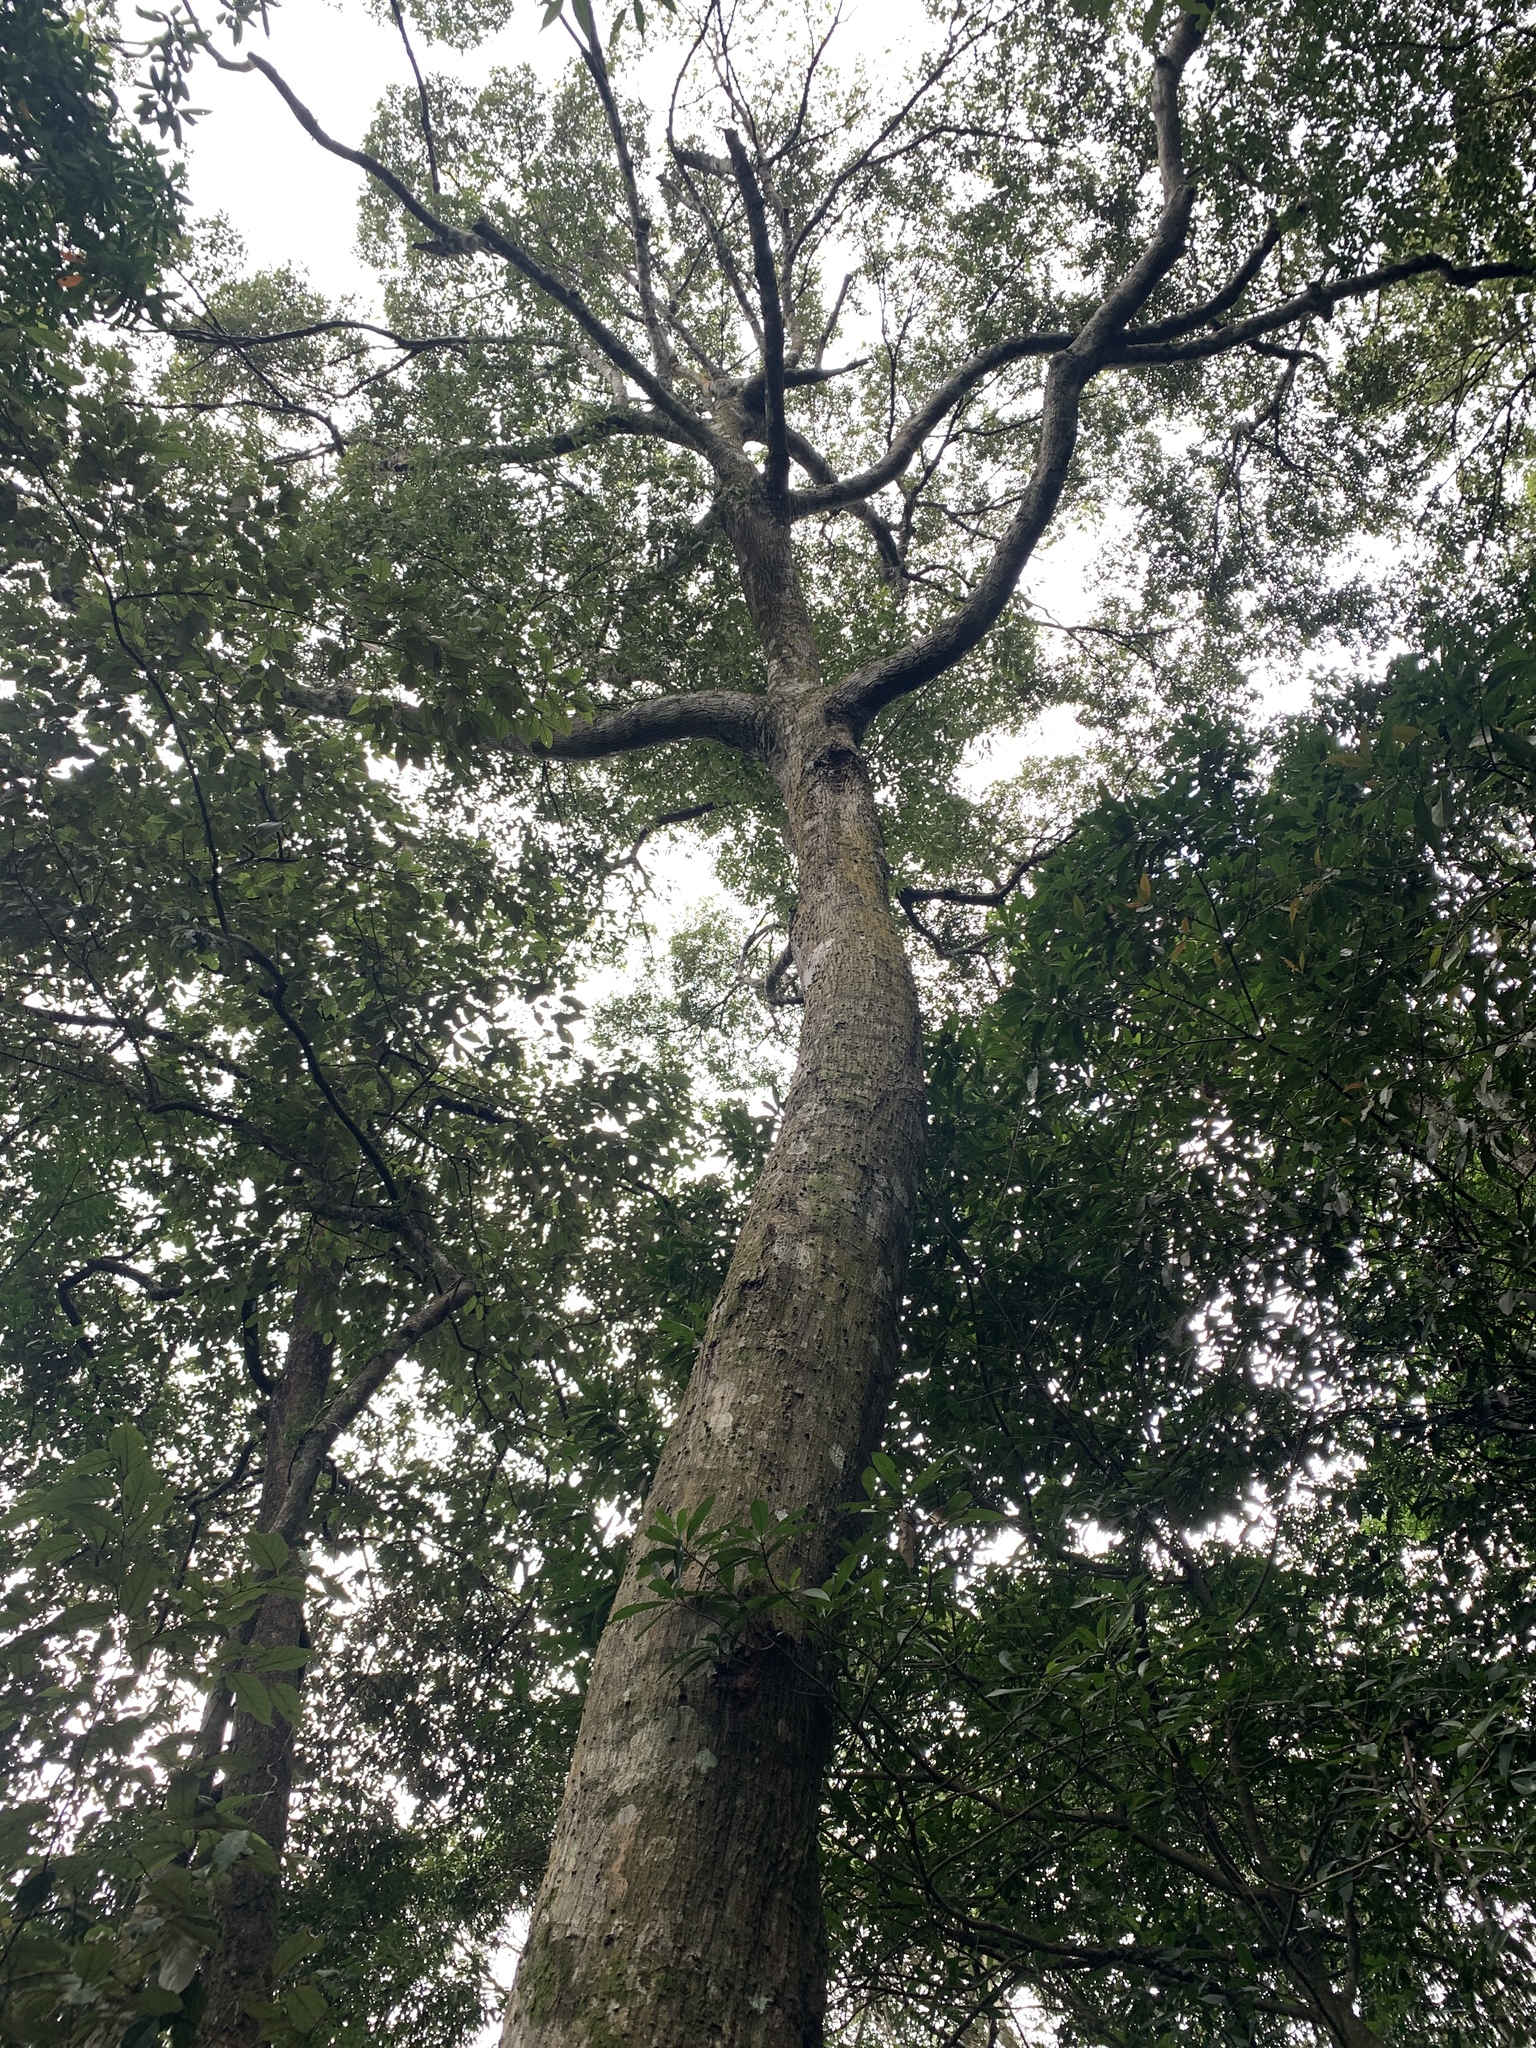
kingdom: Plantae
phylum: Tracheophyta
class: Magnoliopsida
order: Fagales
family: Fagaceae
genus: Castanopsis
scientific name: Castanopsis carlesii
